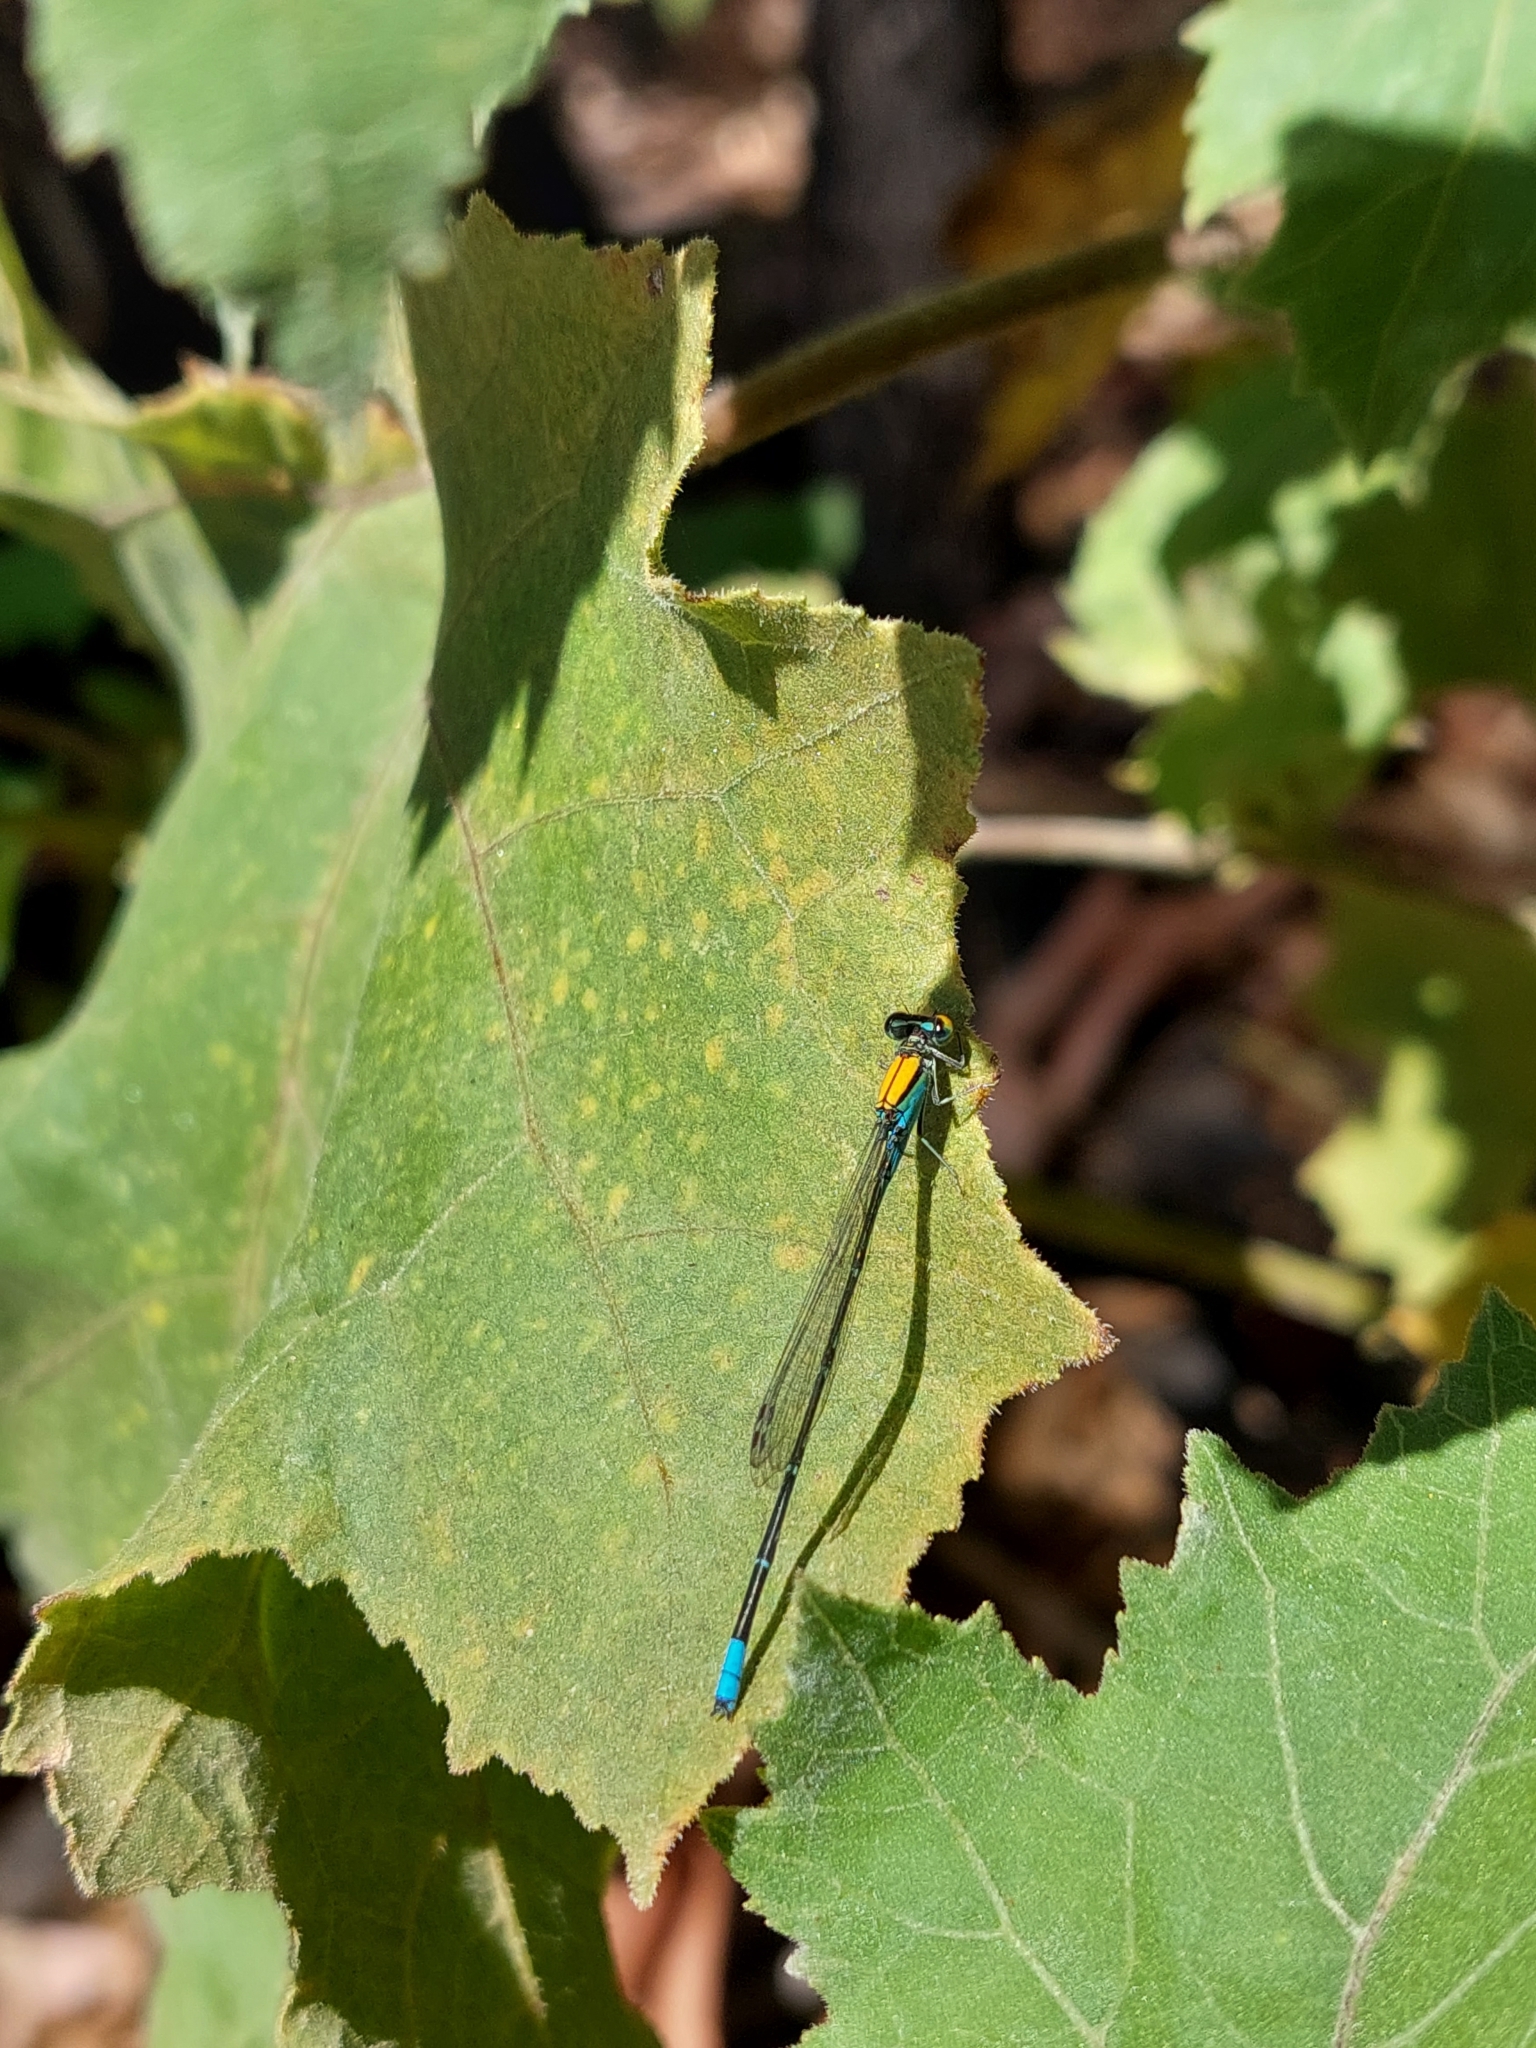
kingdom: Animalia
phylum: Arthropoda
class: Insecta
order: Odonata
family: Coenagrionidae
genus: Pseudagrion
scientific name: Pseudagrion aureofrons
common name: Gold-fronted riverdamsel
